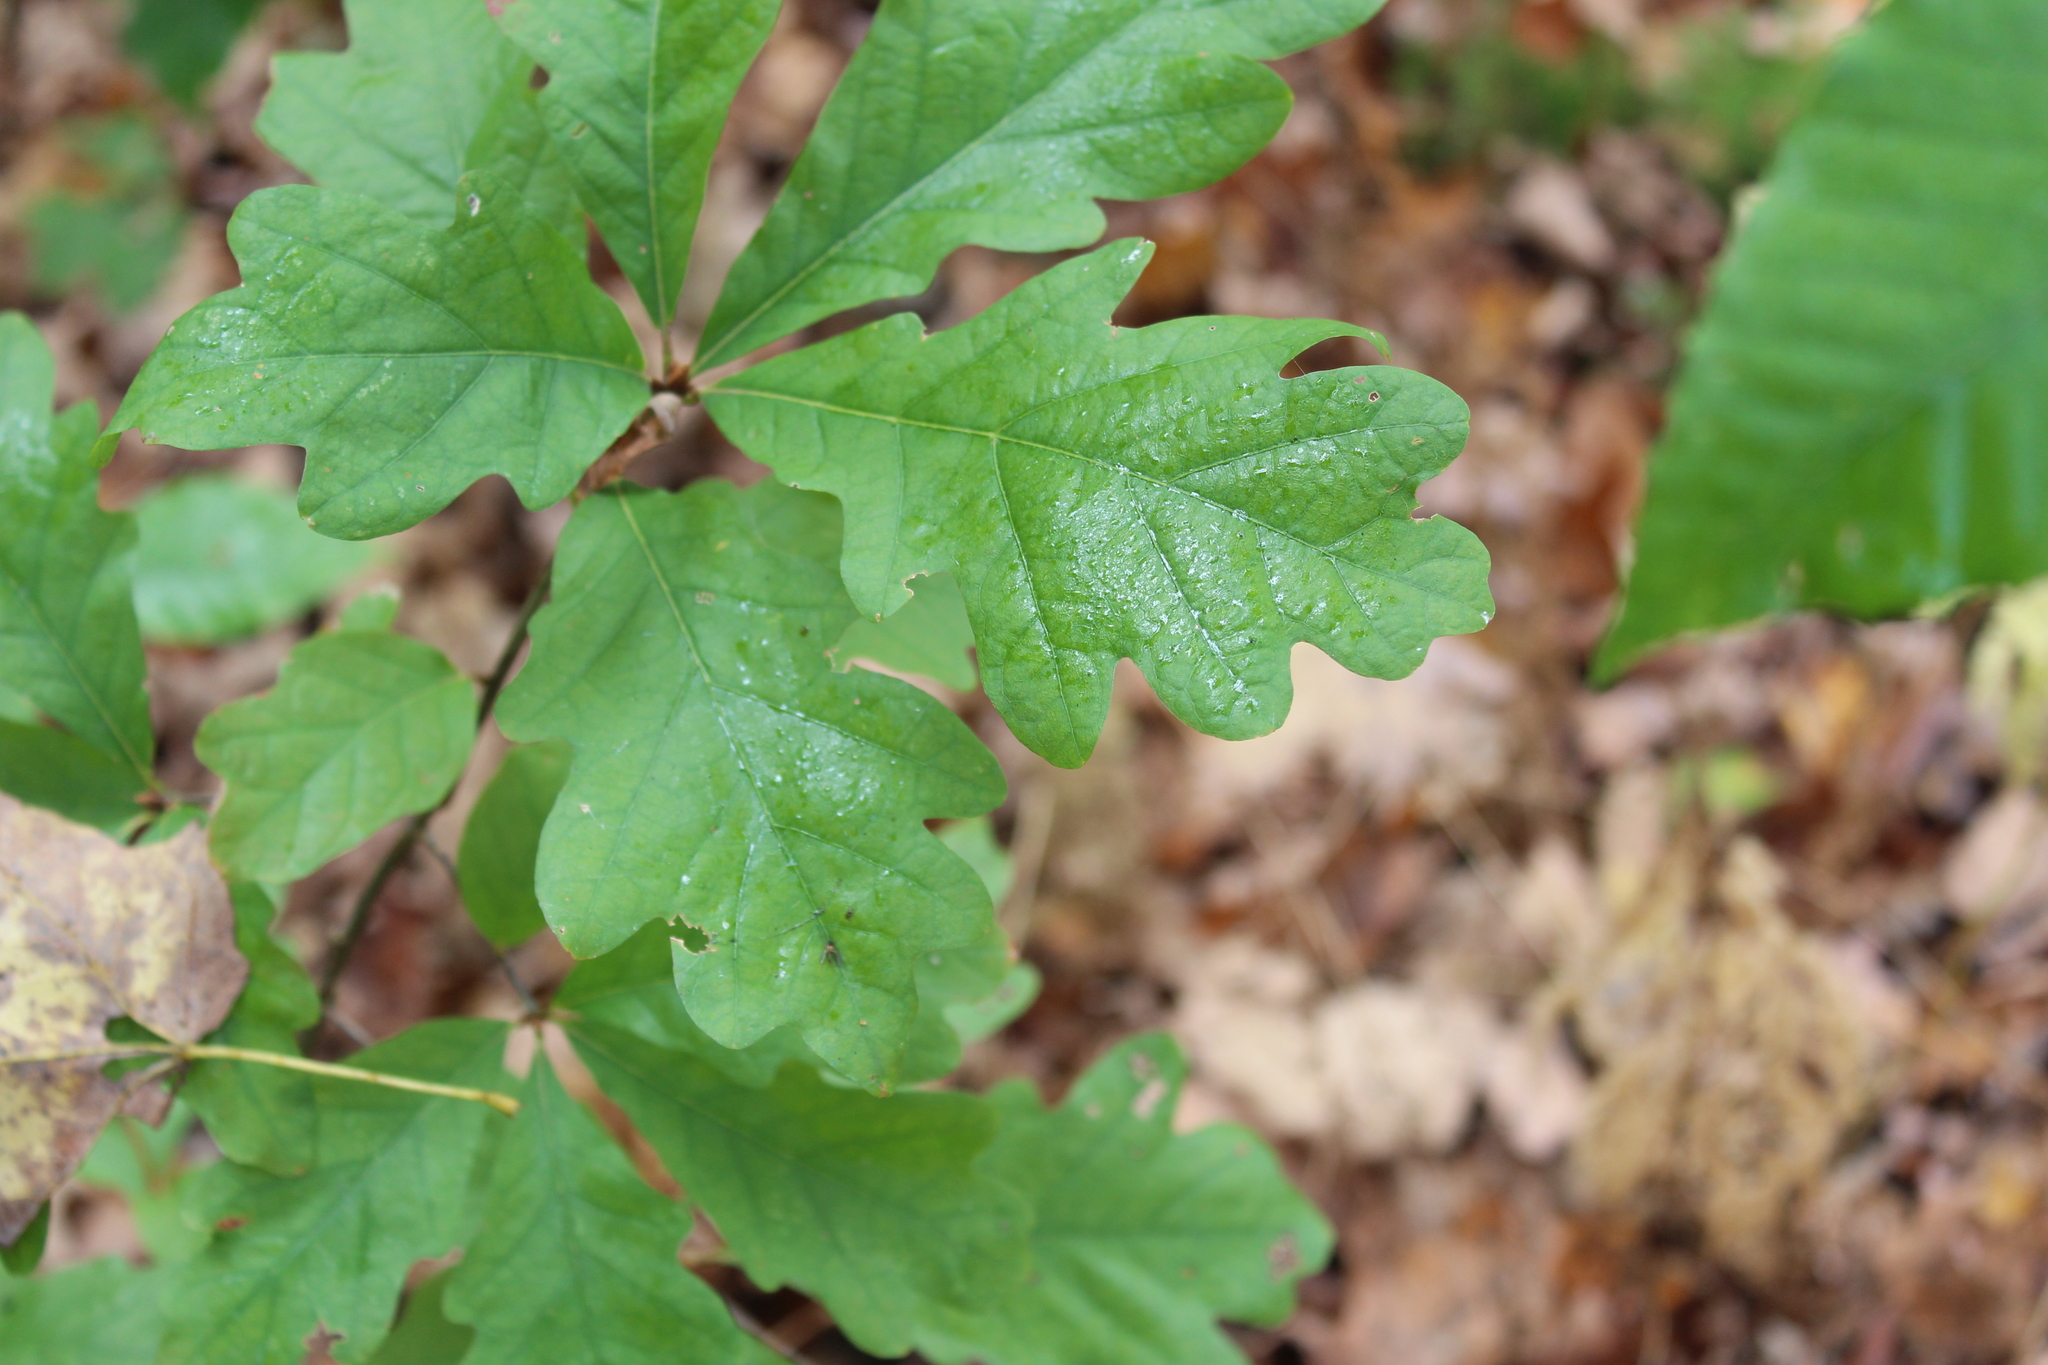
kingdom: Plantae
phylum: Tracheophyta
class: Magnoliopsida
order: Fagales
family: Fagaceae
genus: Quercus
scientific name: Quercus alba
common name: White oak
